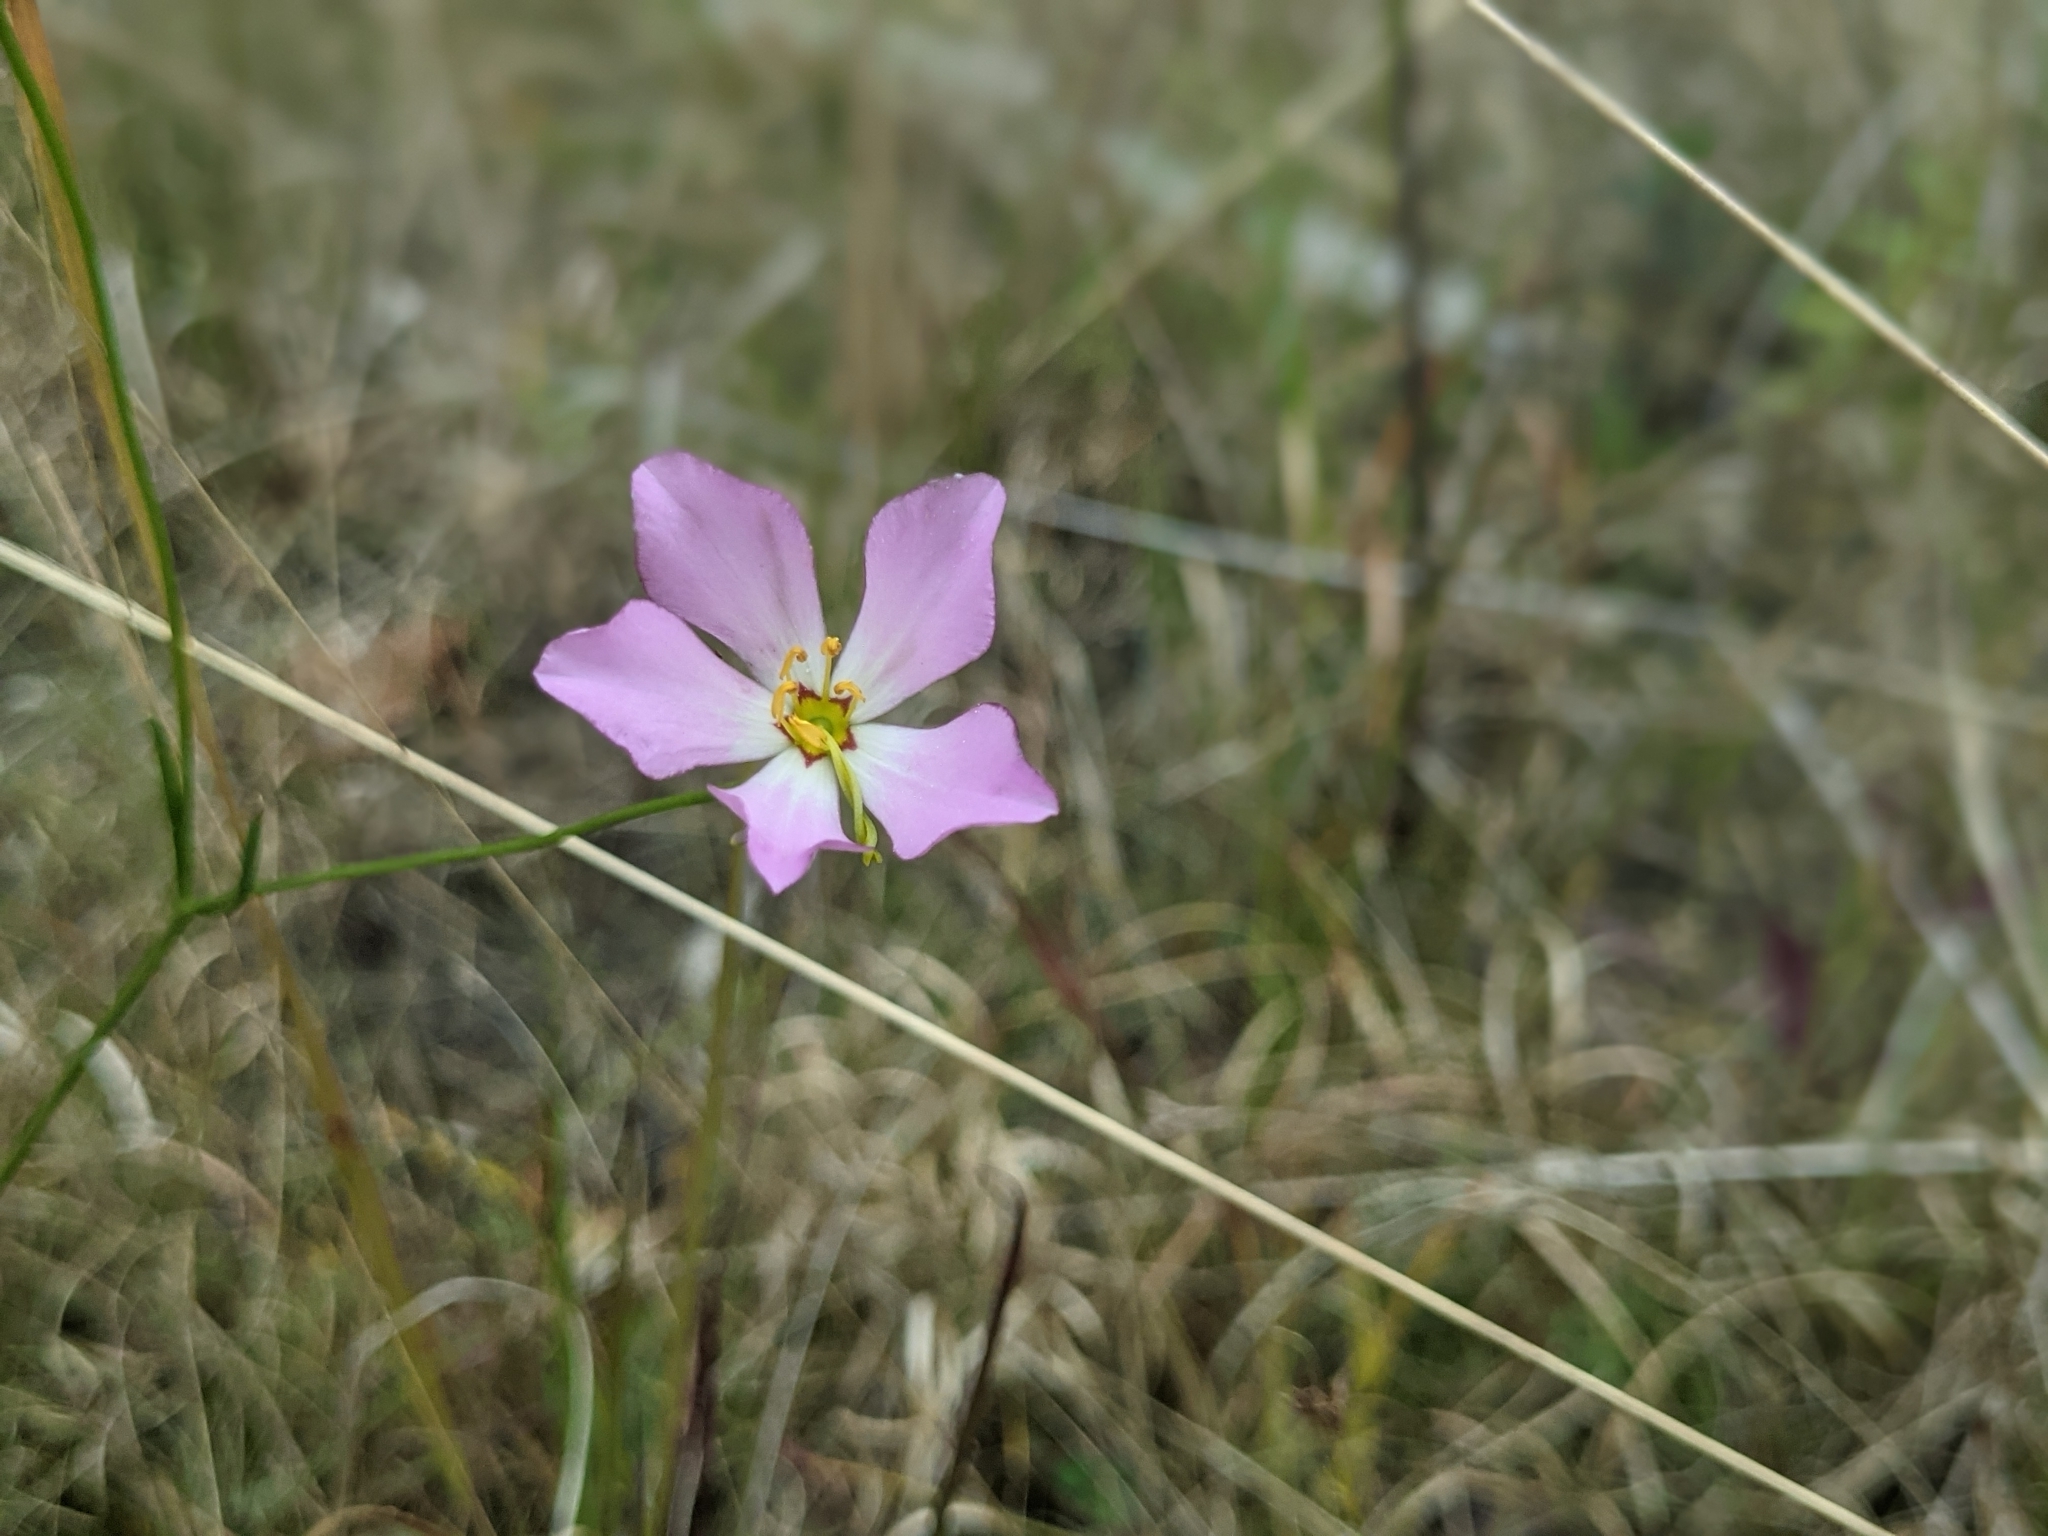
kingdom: Plantae
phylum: Tracheophyta
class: Magnoliopsida
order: Gentianales
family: Gentianaceae
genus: Sabatia
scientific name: Sabatia stellaris
